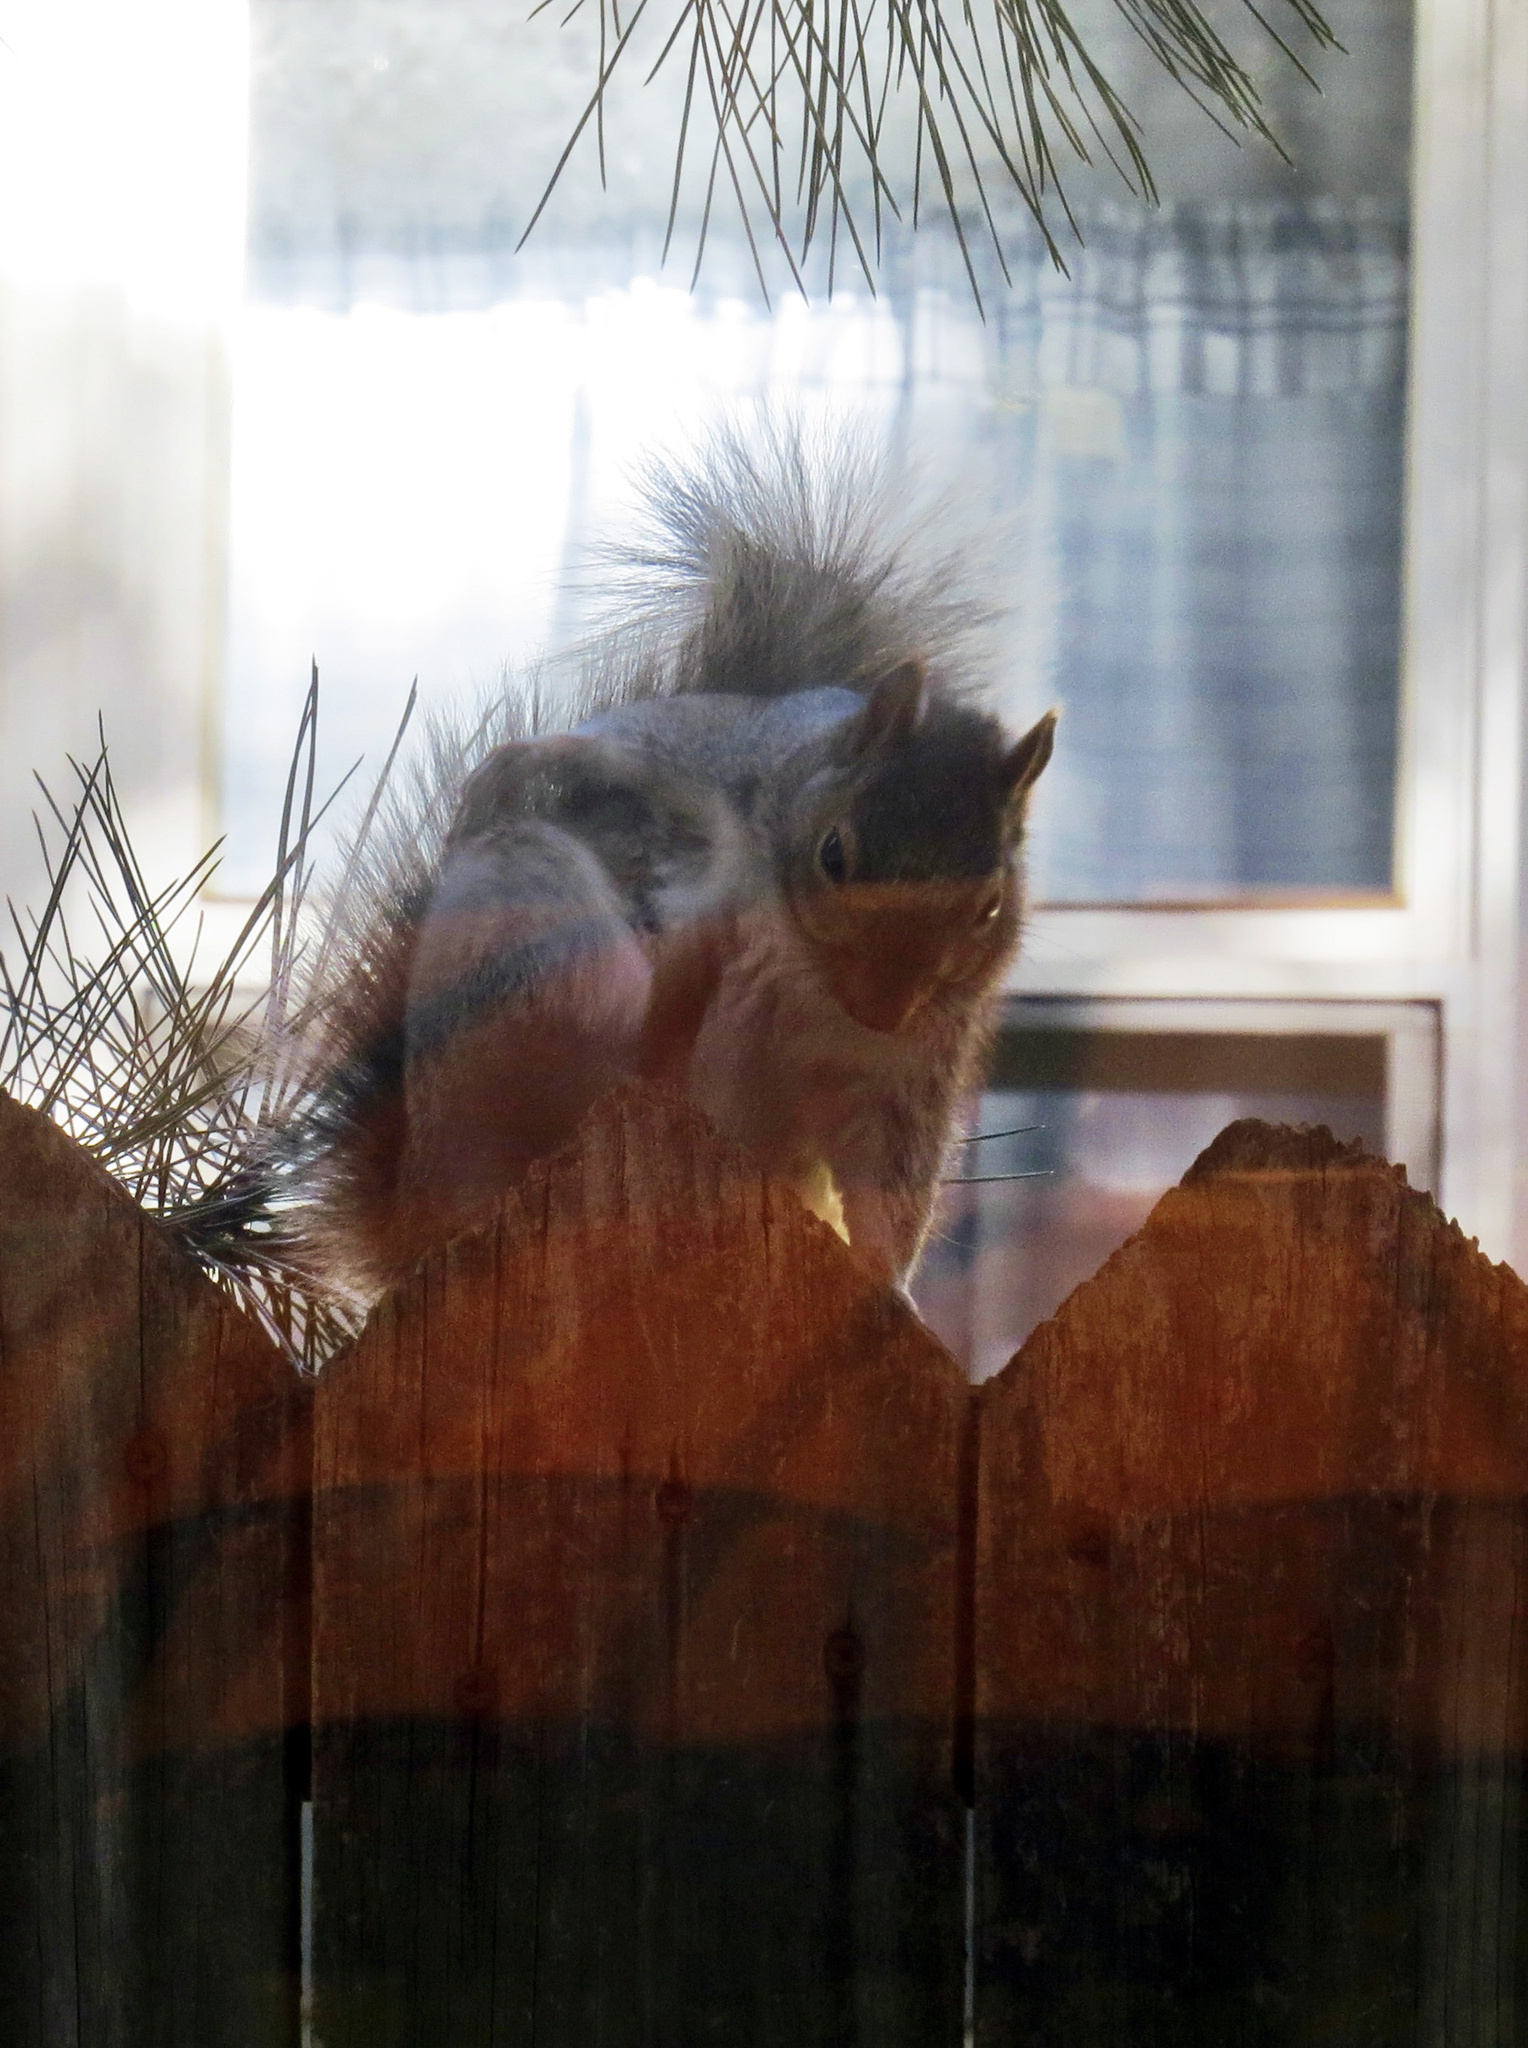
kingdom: Animalia
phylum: Chordata
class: Mammalia
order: Rodentia
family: Sciuridae
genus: Sciurus
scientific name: Sciurus carolinensis
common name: Eastern gray squirrel
